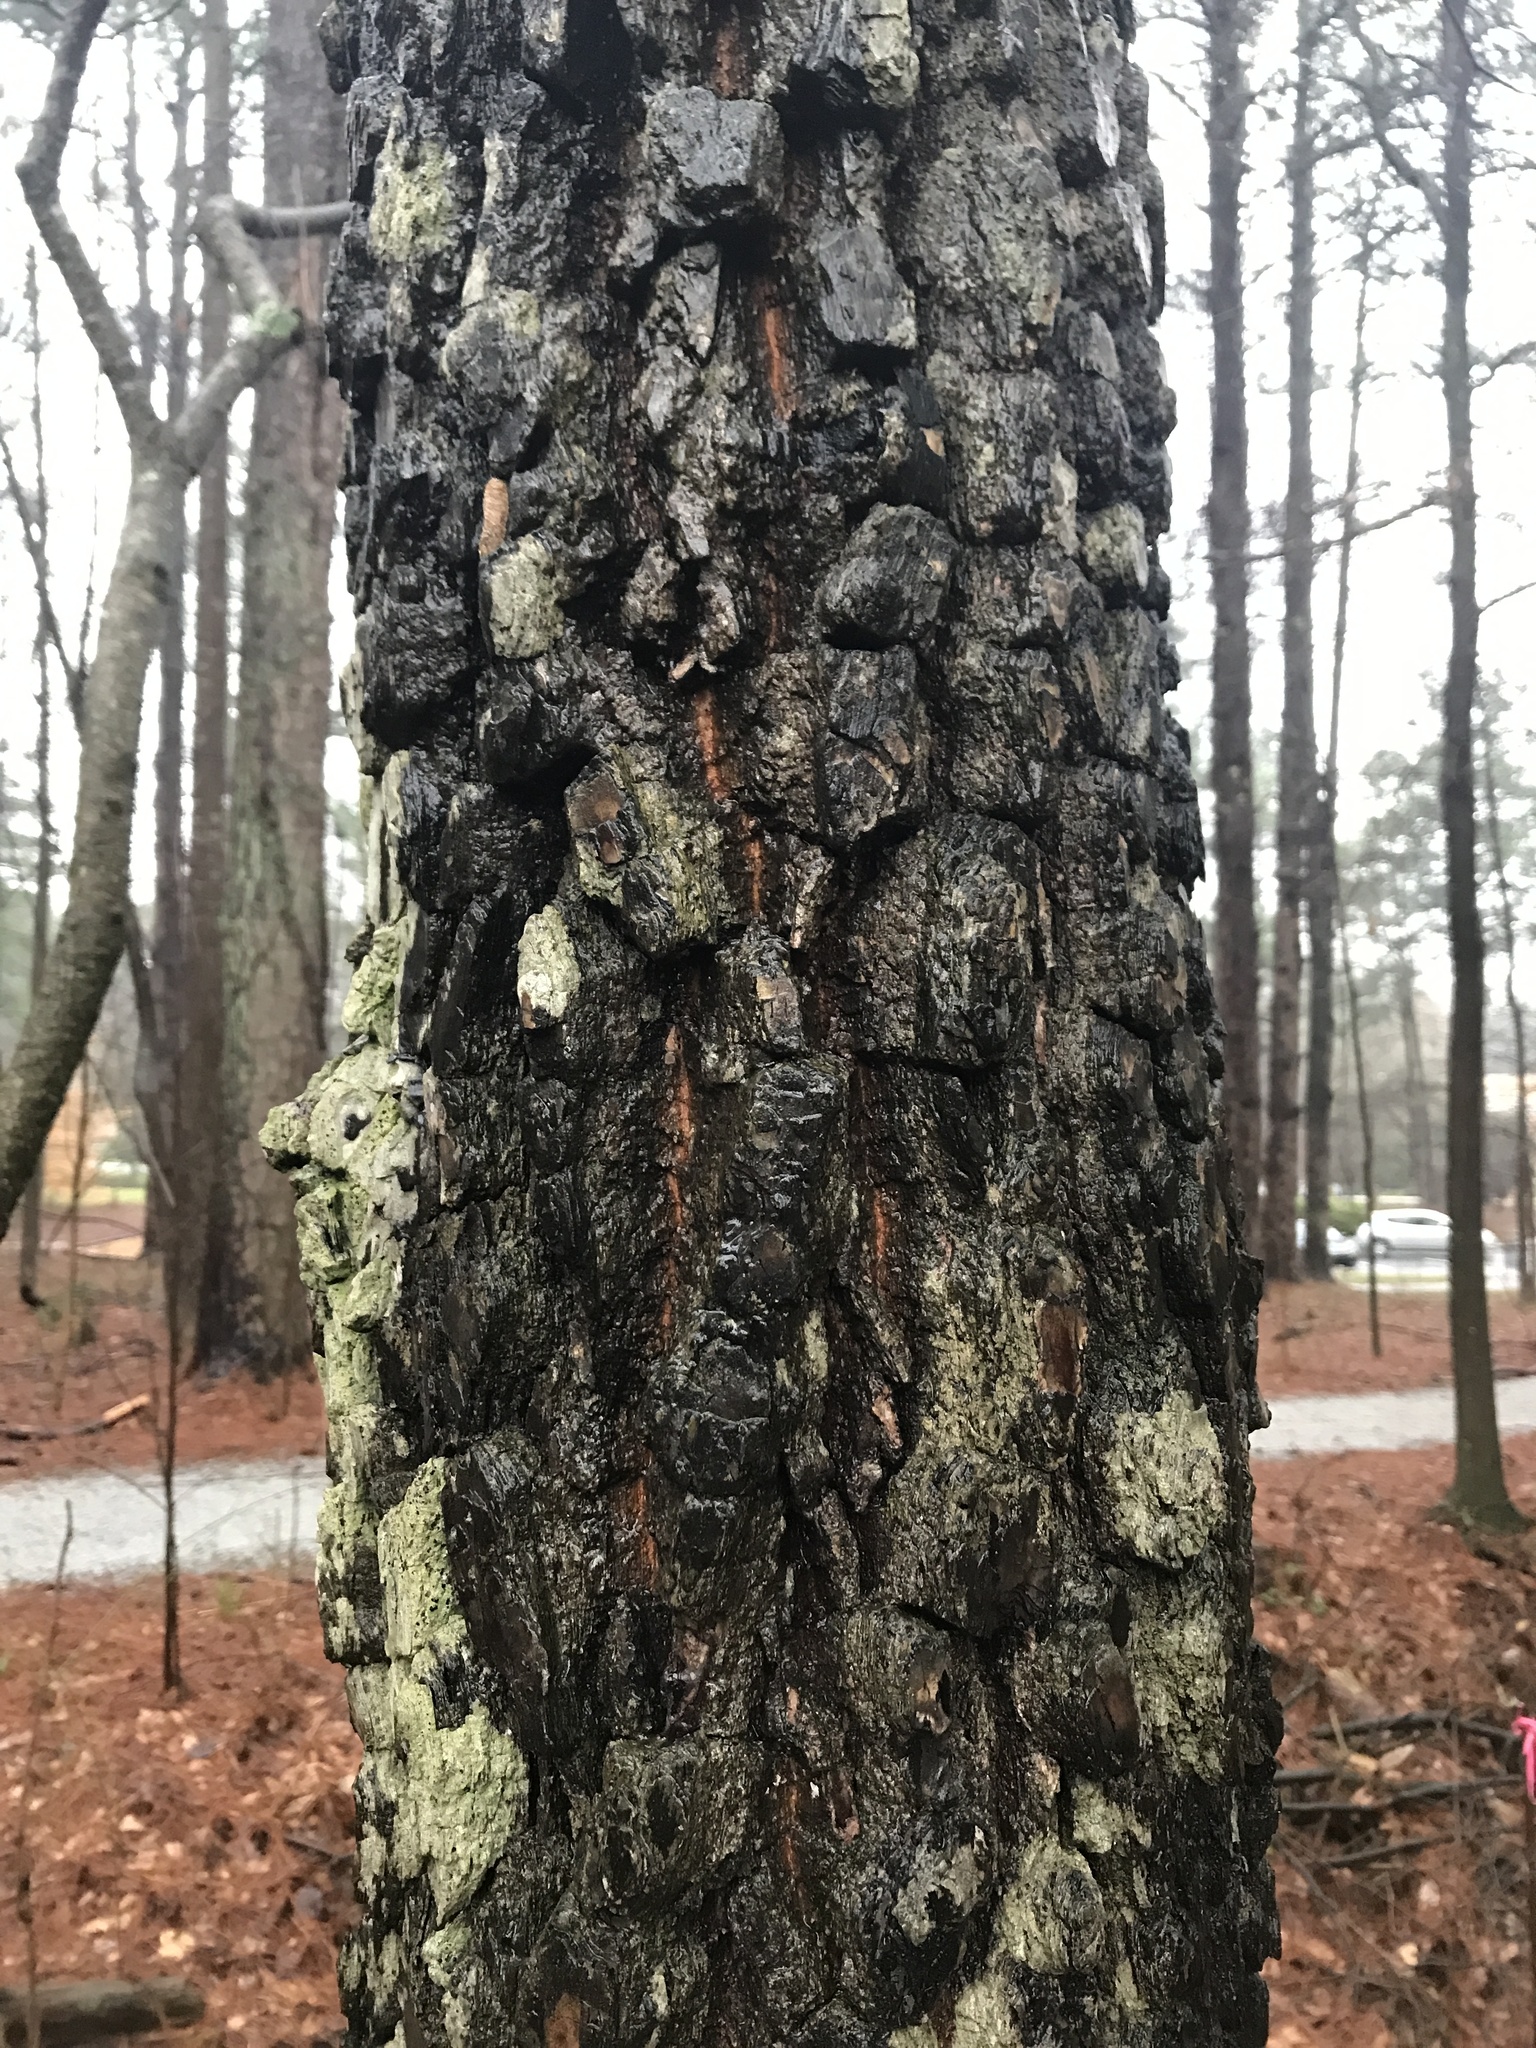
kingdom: Plantae
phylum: Tracheophyta
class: Magnoliopsida
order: Ericales
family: Ebenaceae
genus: Diospyros
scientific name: Diospyros virginiana
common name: Persimmon
